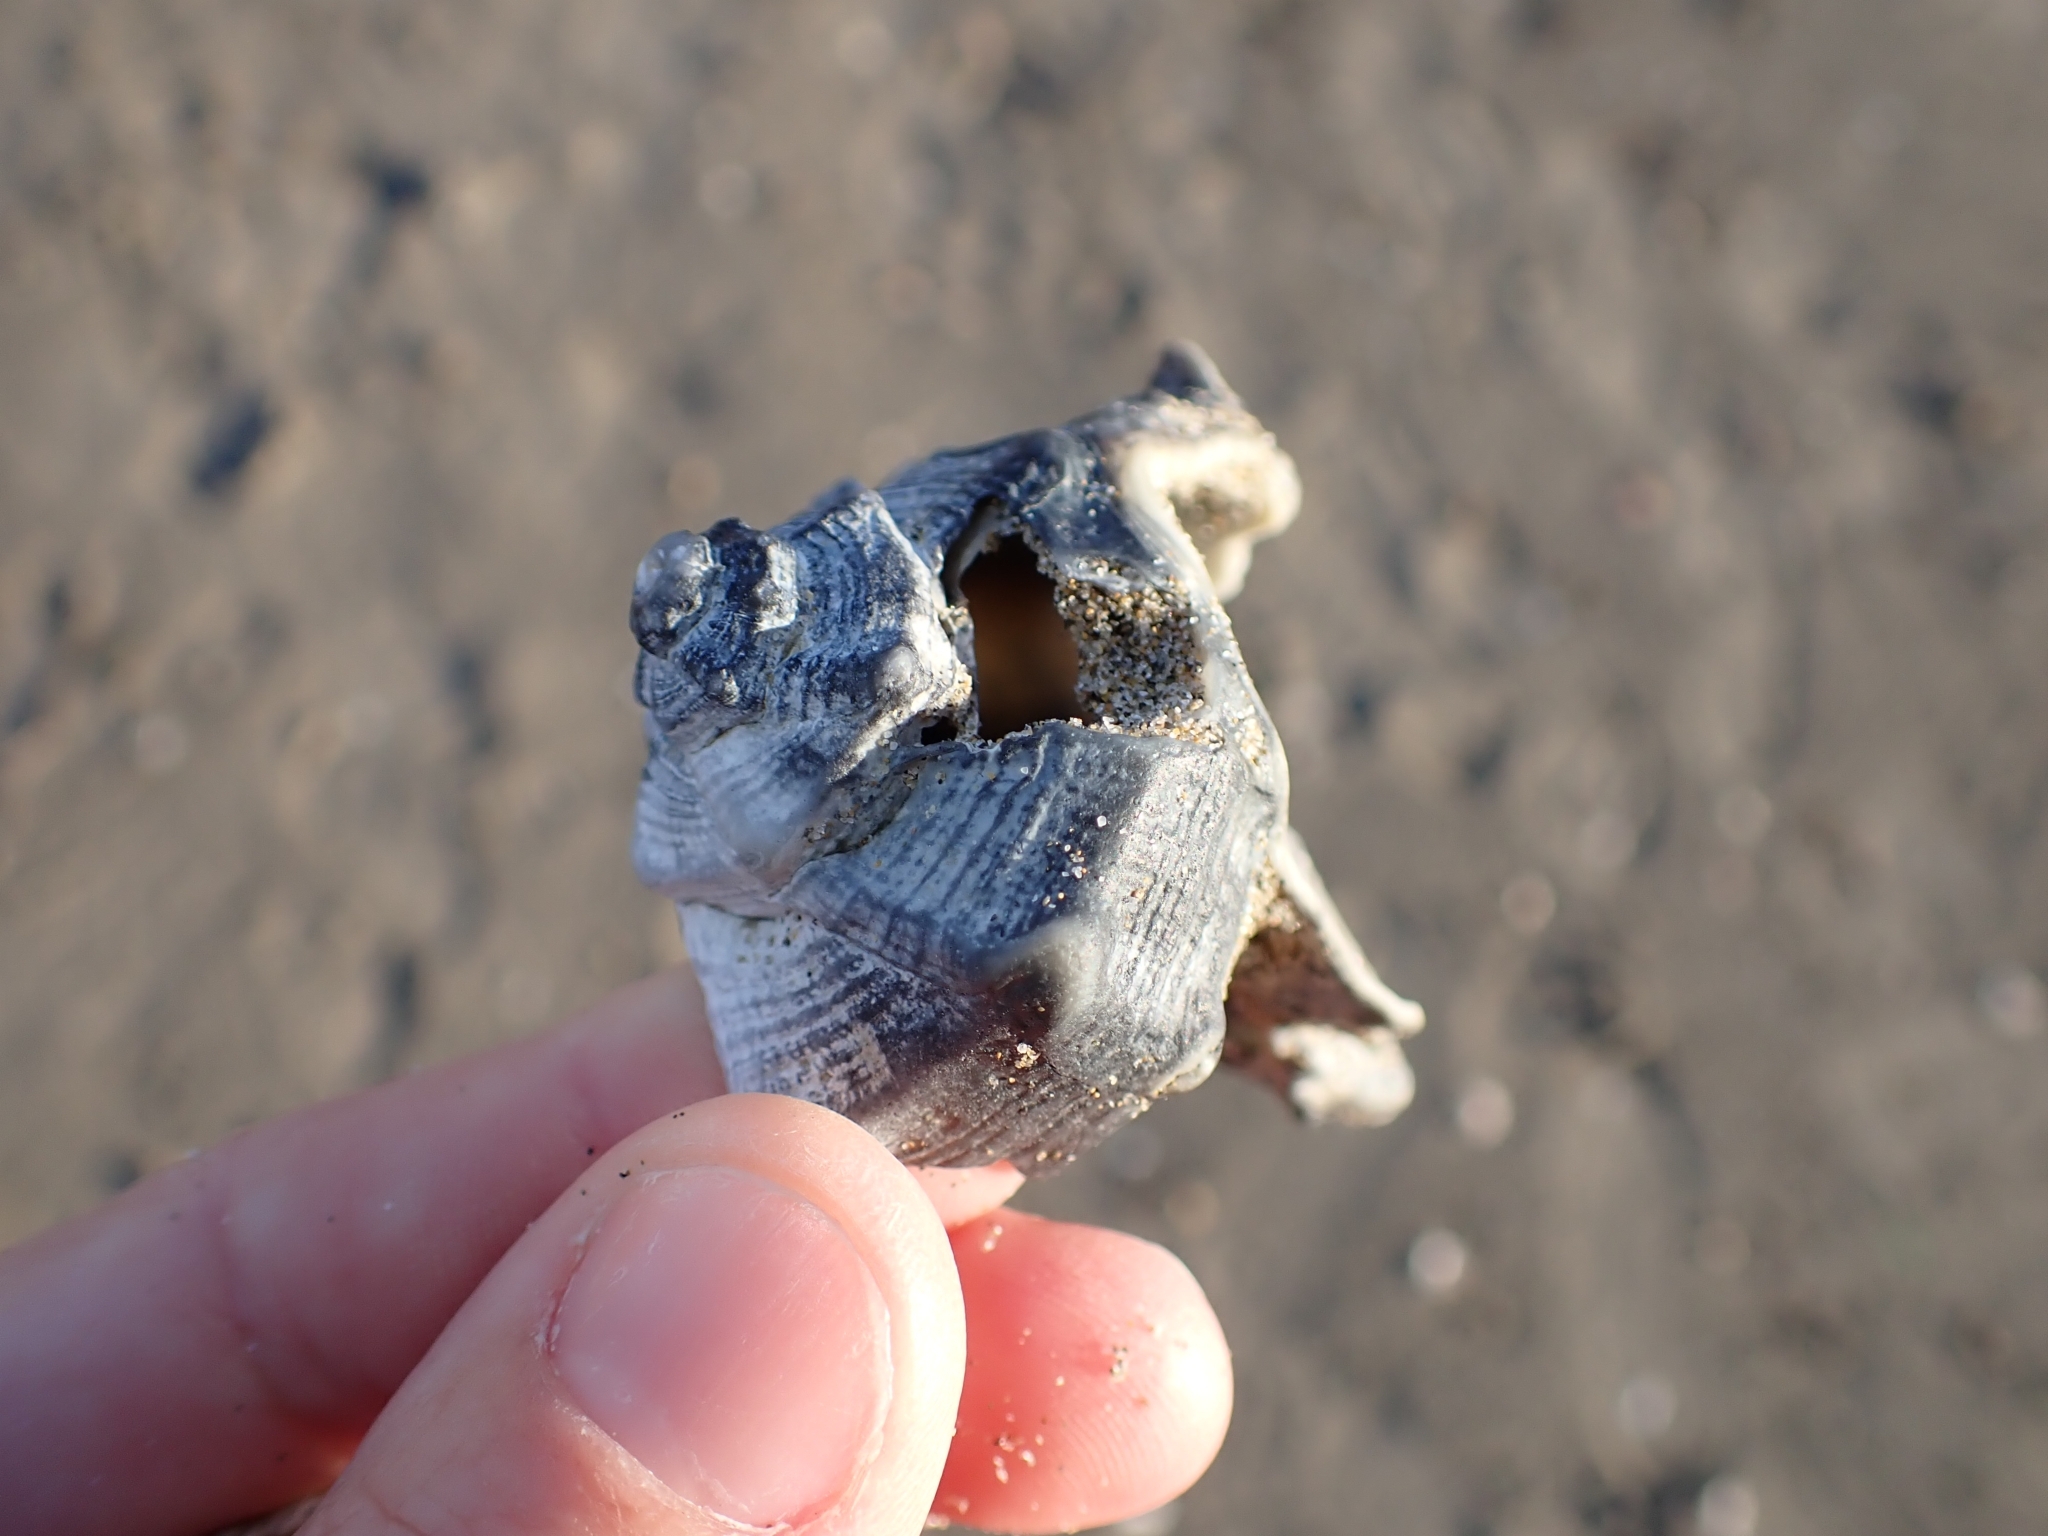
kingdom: Animalia
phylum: Mollusca
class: Gastropoda
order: Neogastropoda
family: Muricidae
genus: Bolinus
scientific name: Bolinus brandaris
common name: Dye murex
